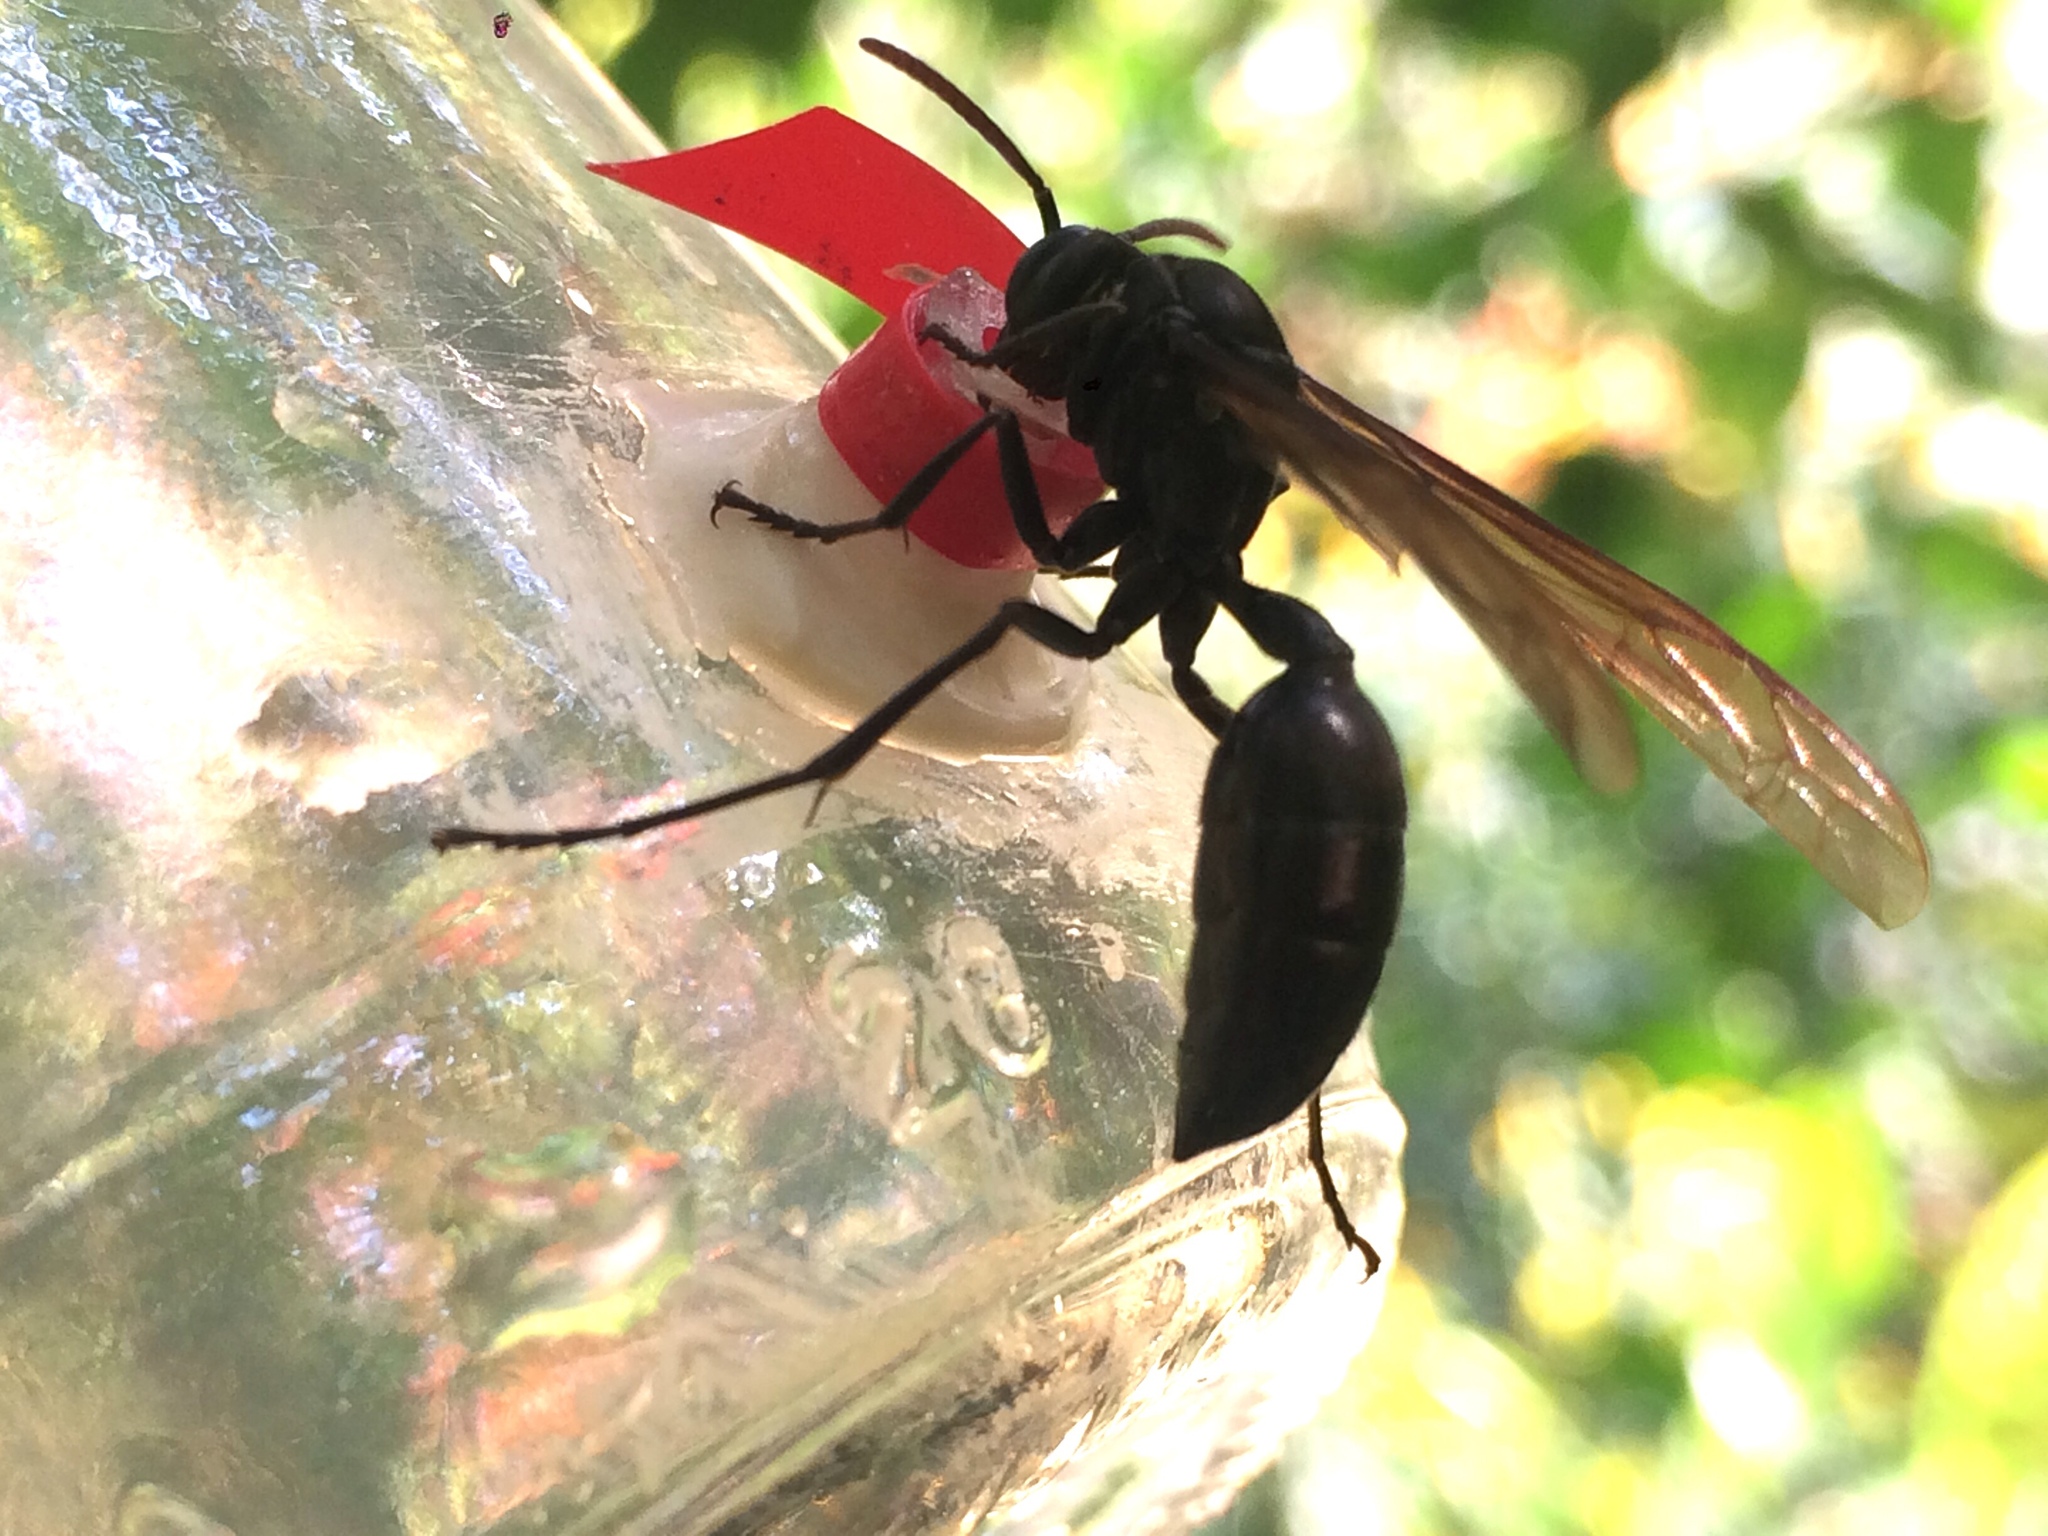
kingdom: Animalia
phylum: Arthropoda
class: Insecta
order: Hymenoptera
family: Vespidae
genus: Agelaia
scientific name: Agelaia angulata
